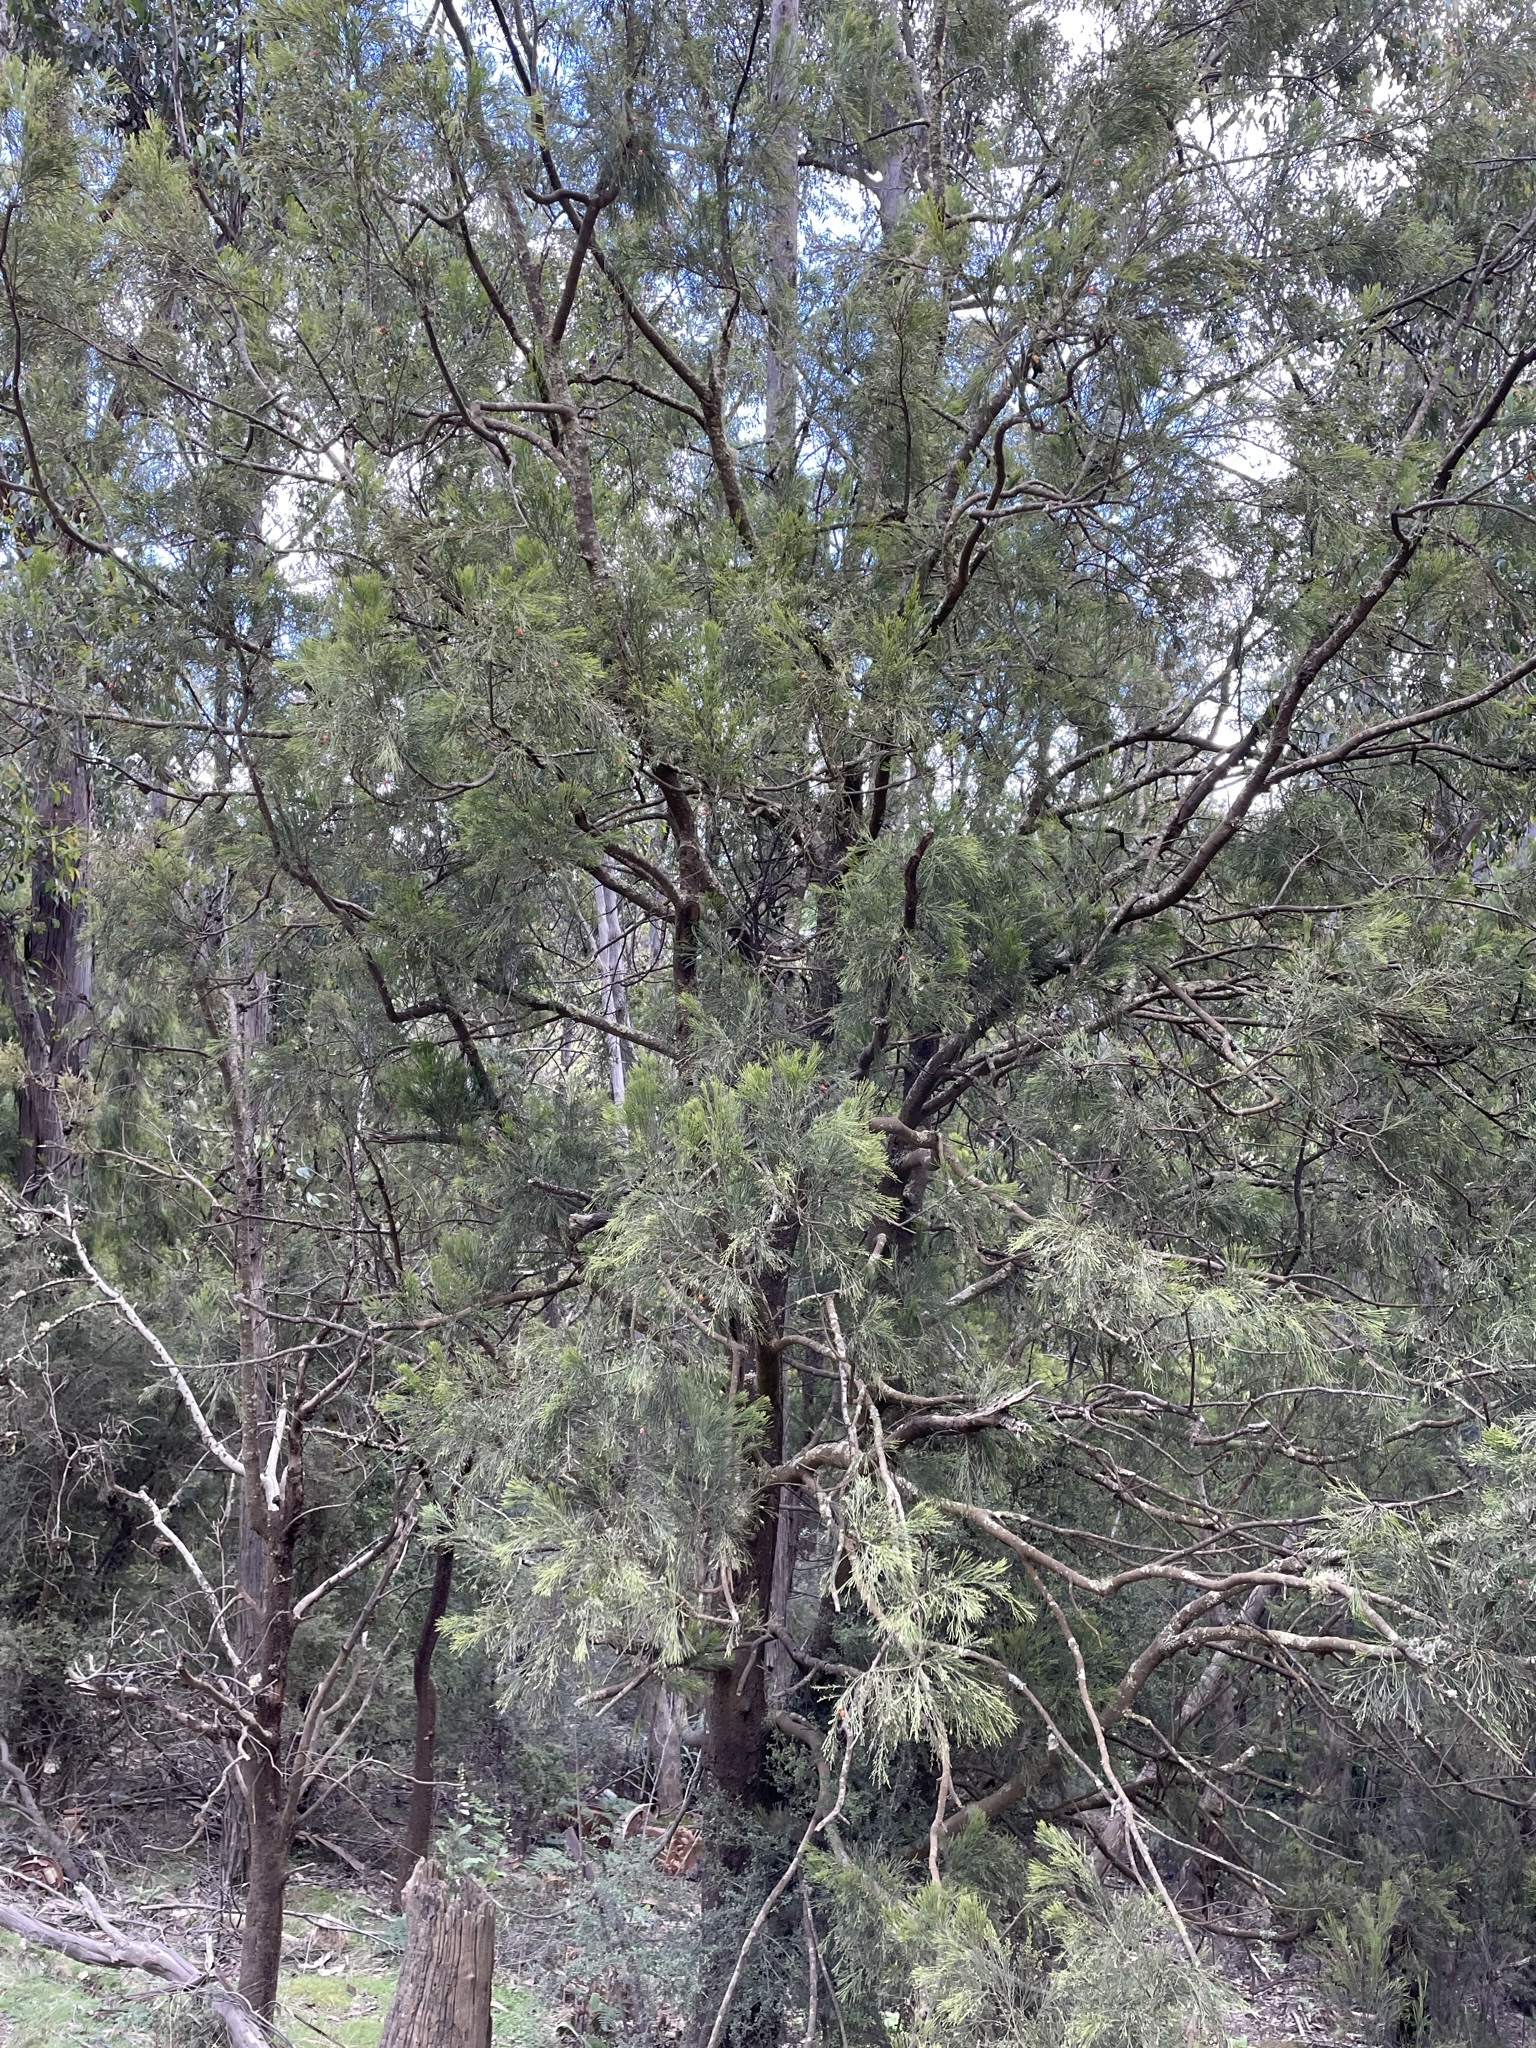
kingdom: Plantae
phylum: Tracheophyta
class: Magnoliopsida
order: Santalales
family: Santalaceae
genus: Exocarpos
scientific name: Exocarpos cupressiformis
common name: Cherry ballart
